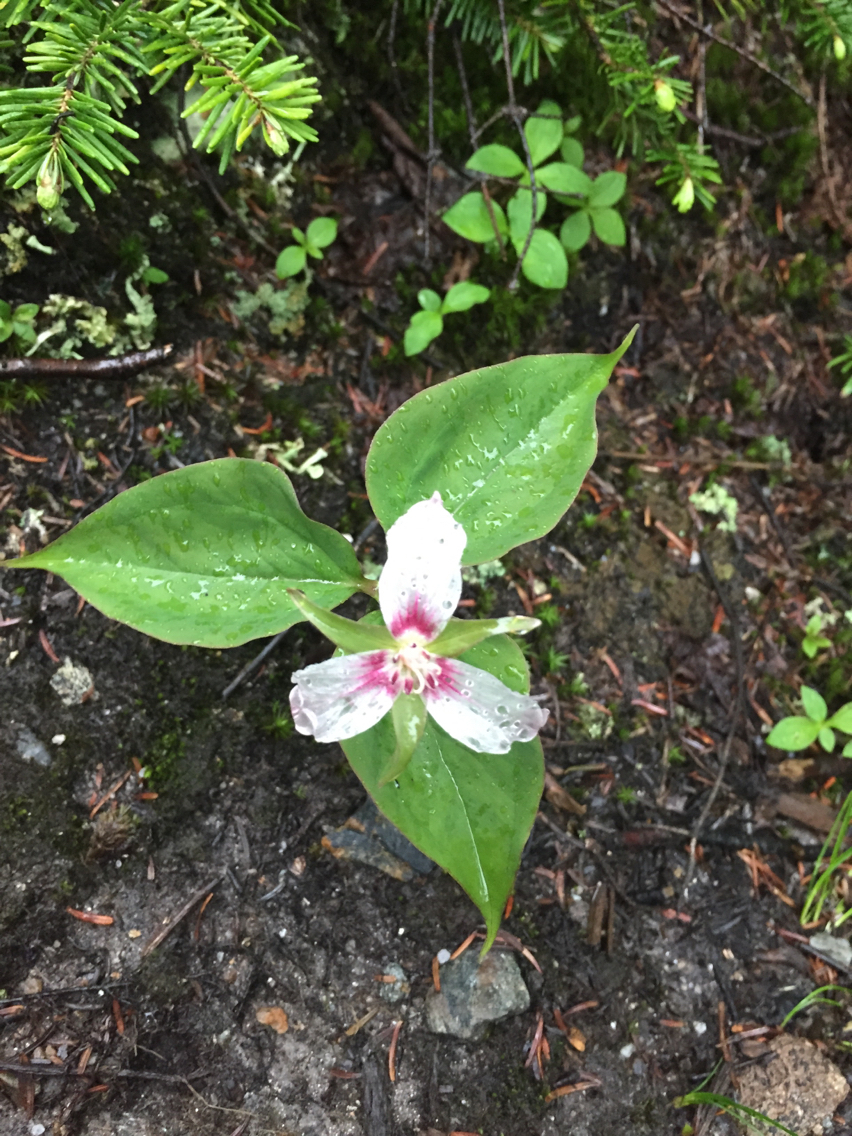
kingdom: Plantae
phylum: Tracheophyta
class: Liliopsida
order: Liliales
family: Melanthiaceae
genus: Trillium
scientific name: Trillium undulatum
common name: Paint trillium
